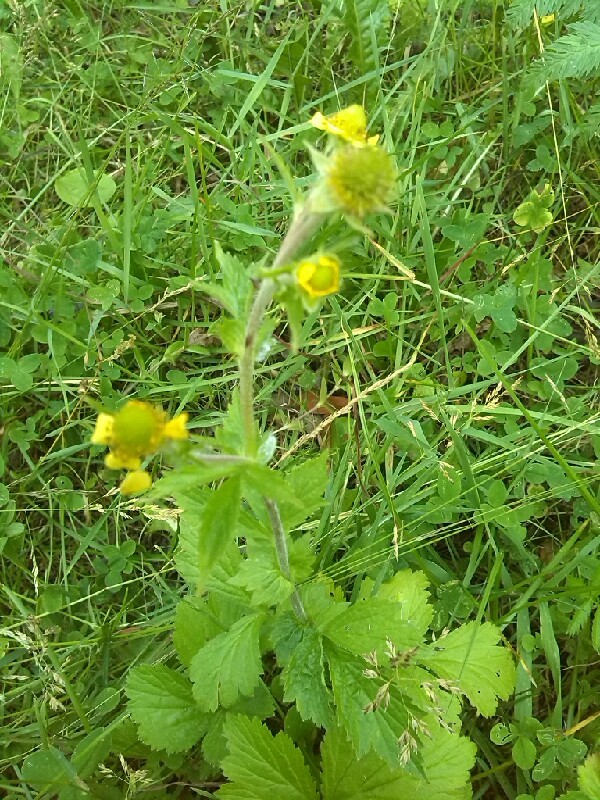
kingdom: Plantae
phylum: Tracheophyta
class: Magnoliopsida
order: Rosales
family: Rosaceae
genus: Geum
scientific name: Geum aleppicum
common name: Yellow avens
